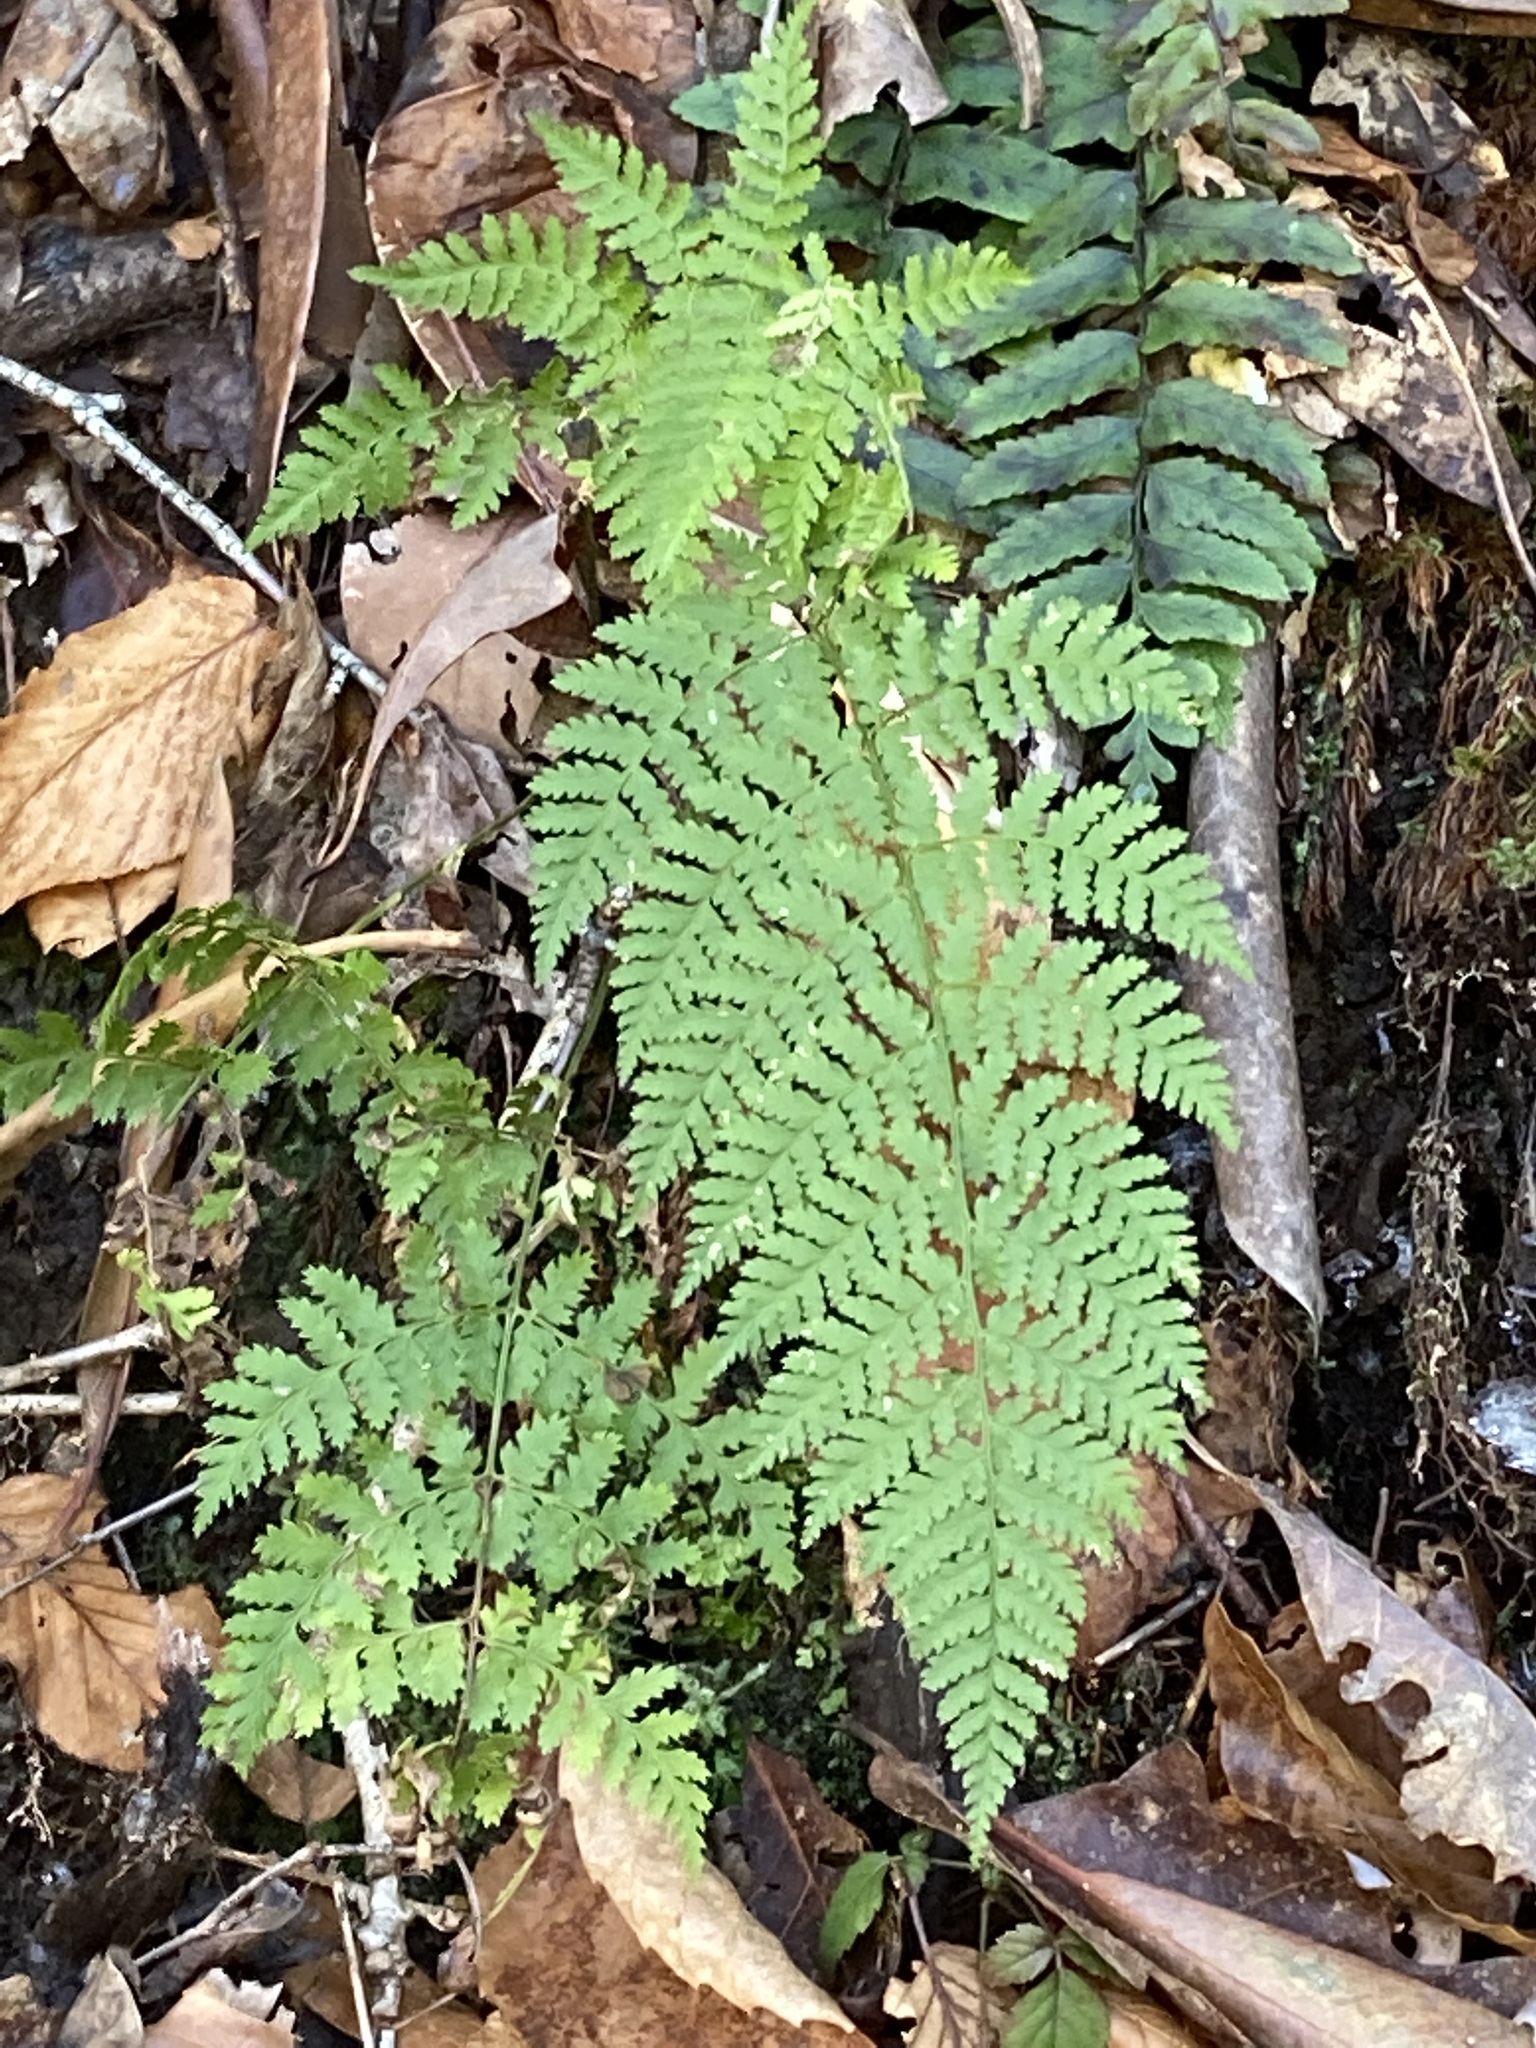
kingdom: Plantae
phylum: Tracheophyta
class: Polypodiopsida
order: Polypodiales
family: Dryopteridaceae
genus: Dryopteris
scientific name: Dryopteris intermedia
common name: Evergreen wood fern
